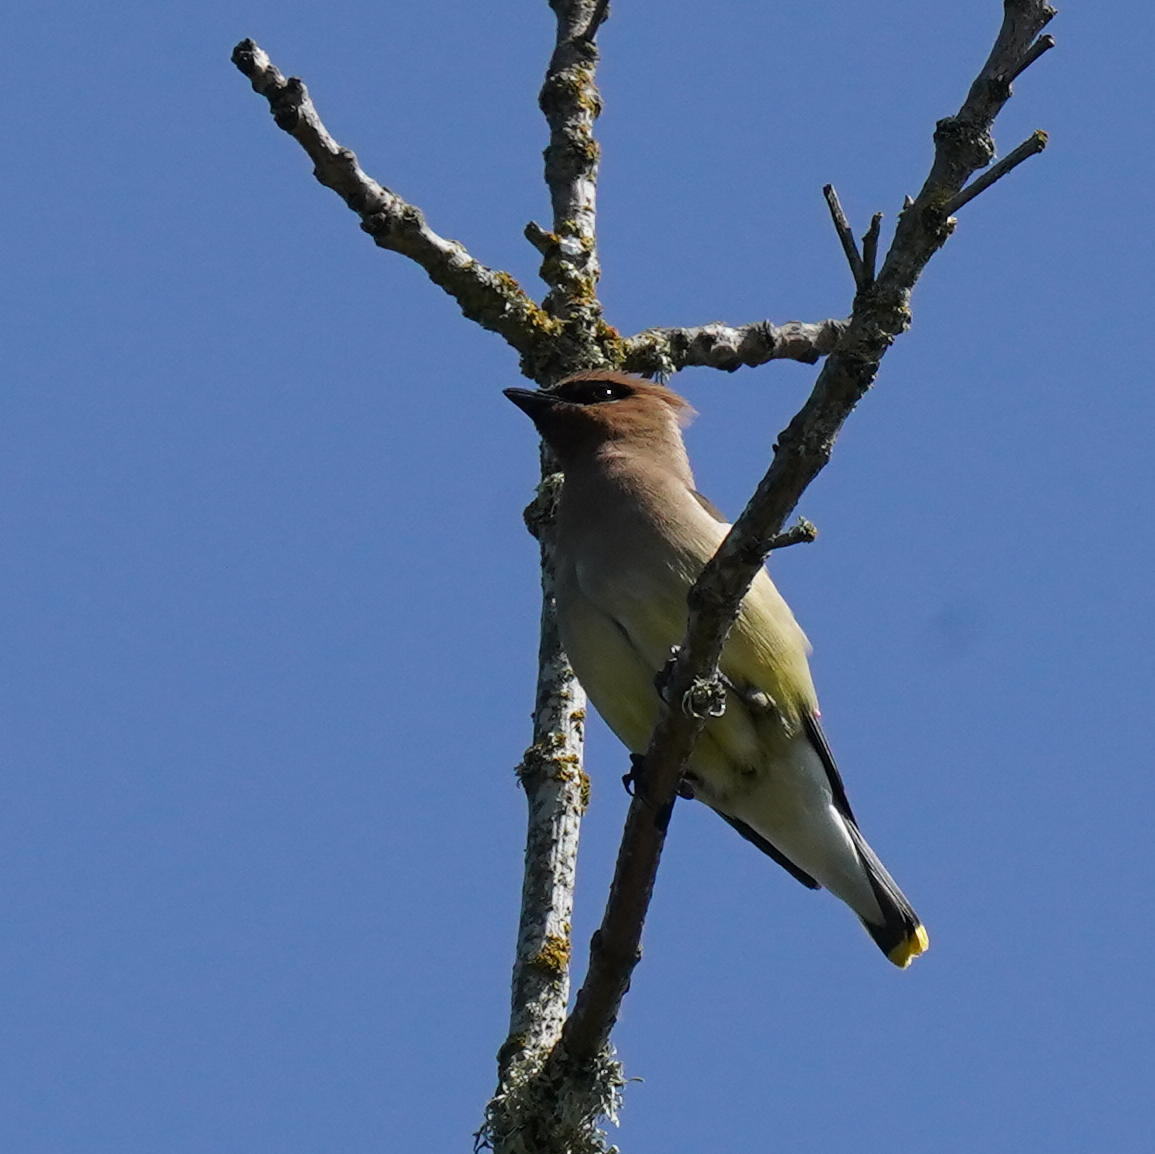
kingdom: Animalia
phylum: Chordata
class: Aves
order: Passeriformes
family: Bombycillidae
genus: Bombycilla
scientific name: Bombycilla cedrorum
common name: Cedar waxwing
